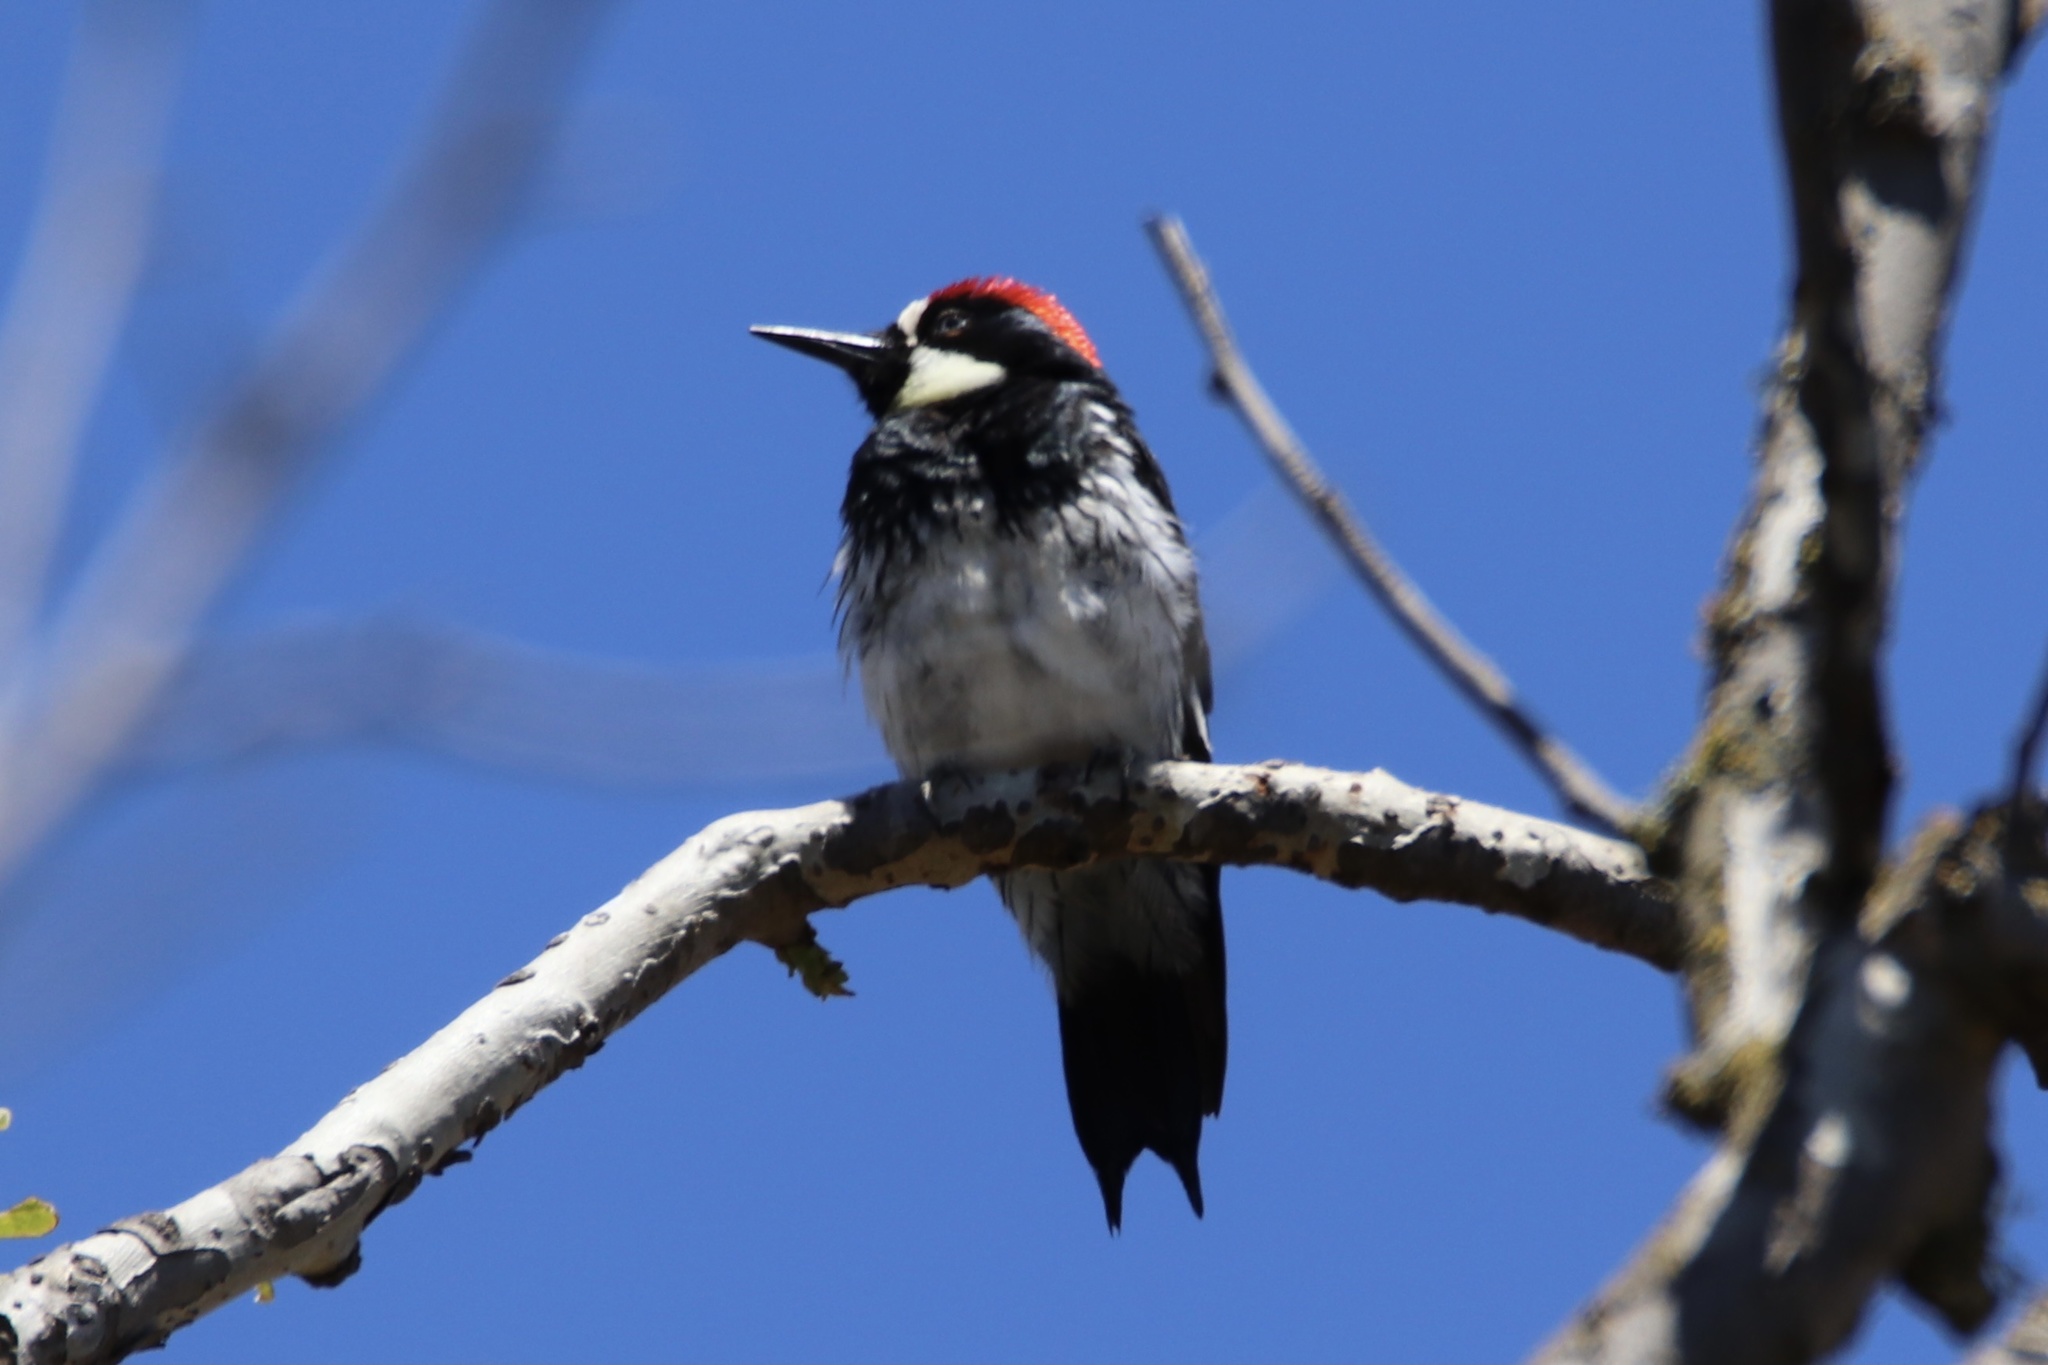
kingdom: Animalia
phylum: Chordata
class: Aves
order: Piciformes
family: Picidae
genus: Melanerpes
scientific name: Melanerpes formicivorus
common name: Acorn woodpecker
